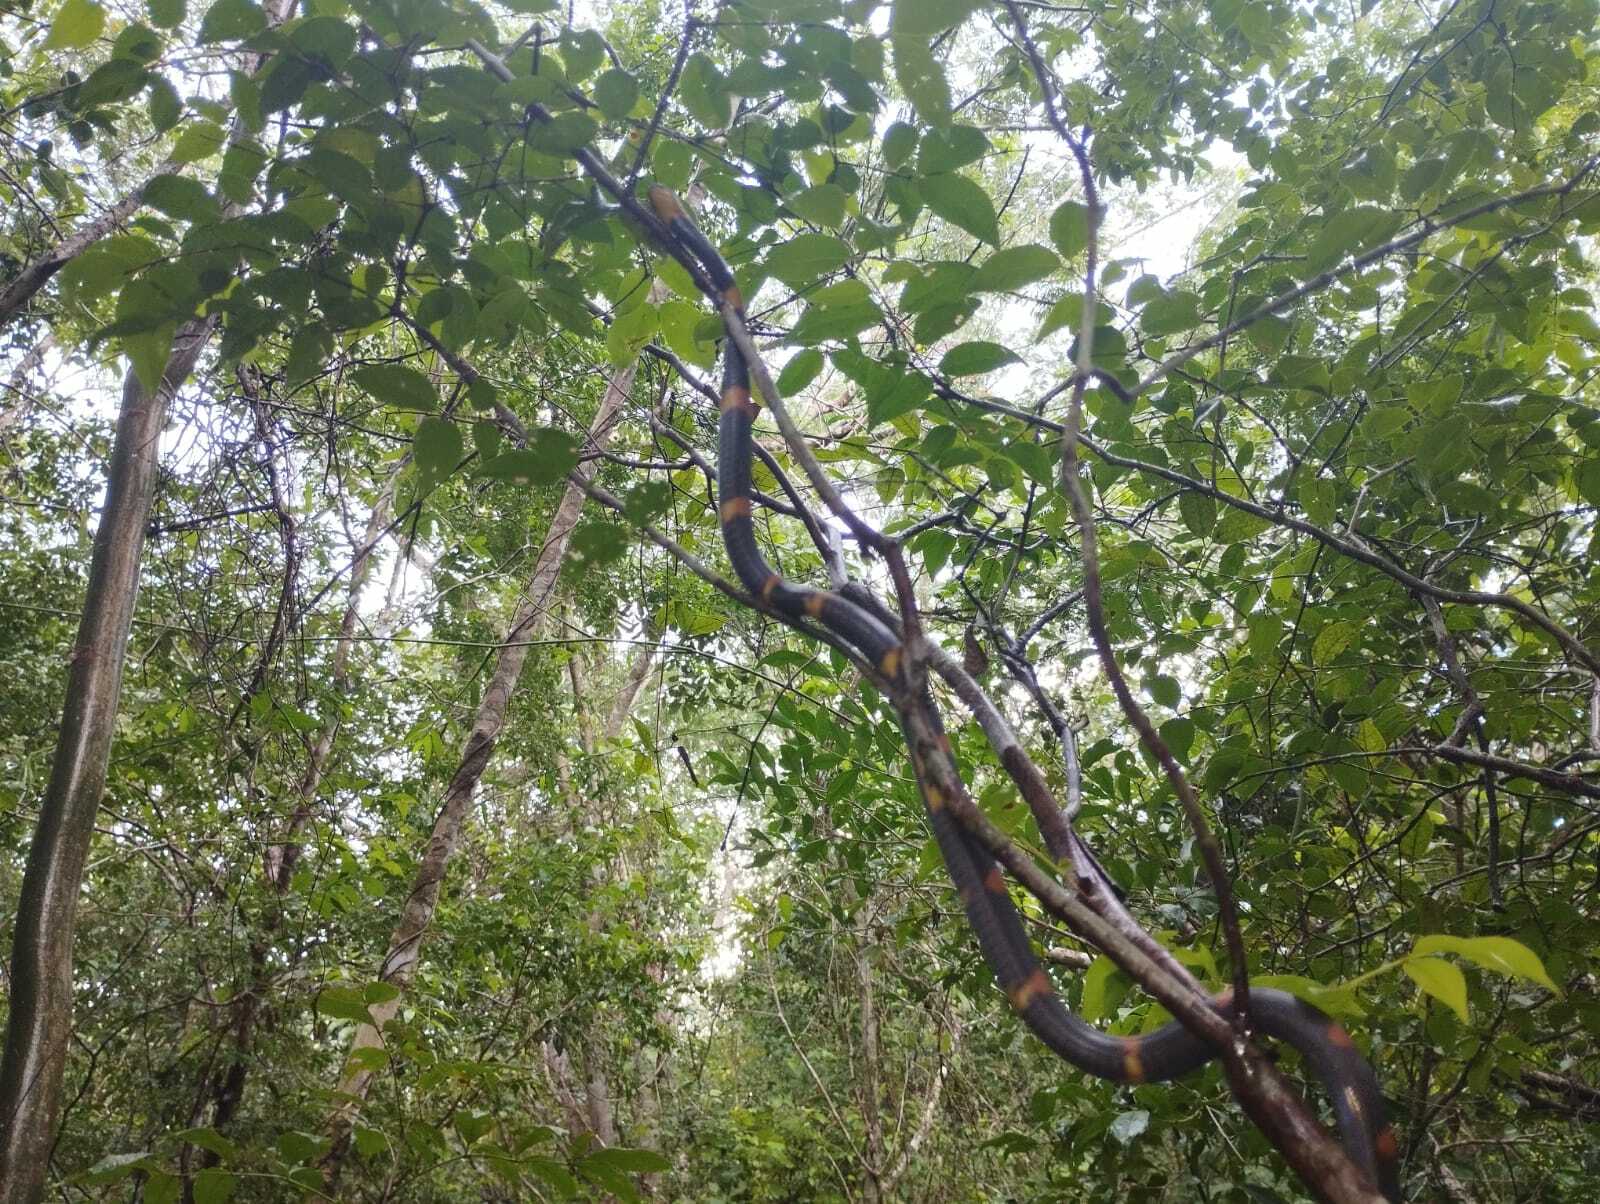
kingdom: Animalia
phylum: Chordata
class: Squamata
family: Colubridae
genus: Geophis
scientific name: Geophis
